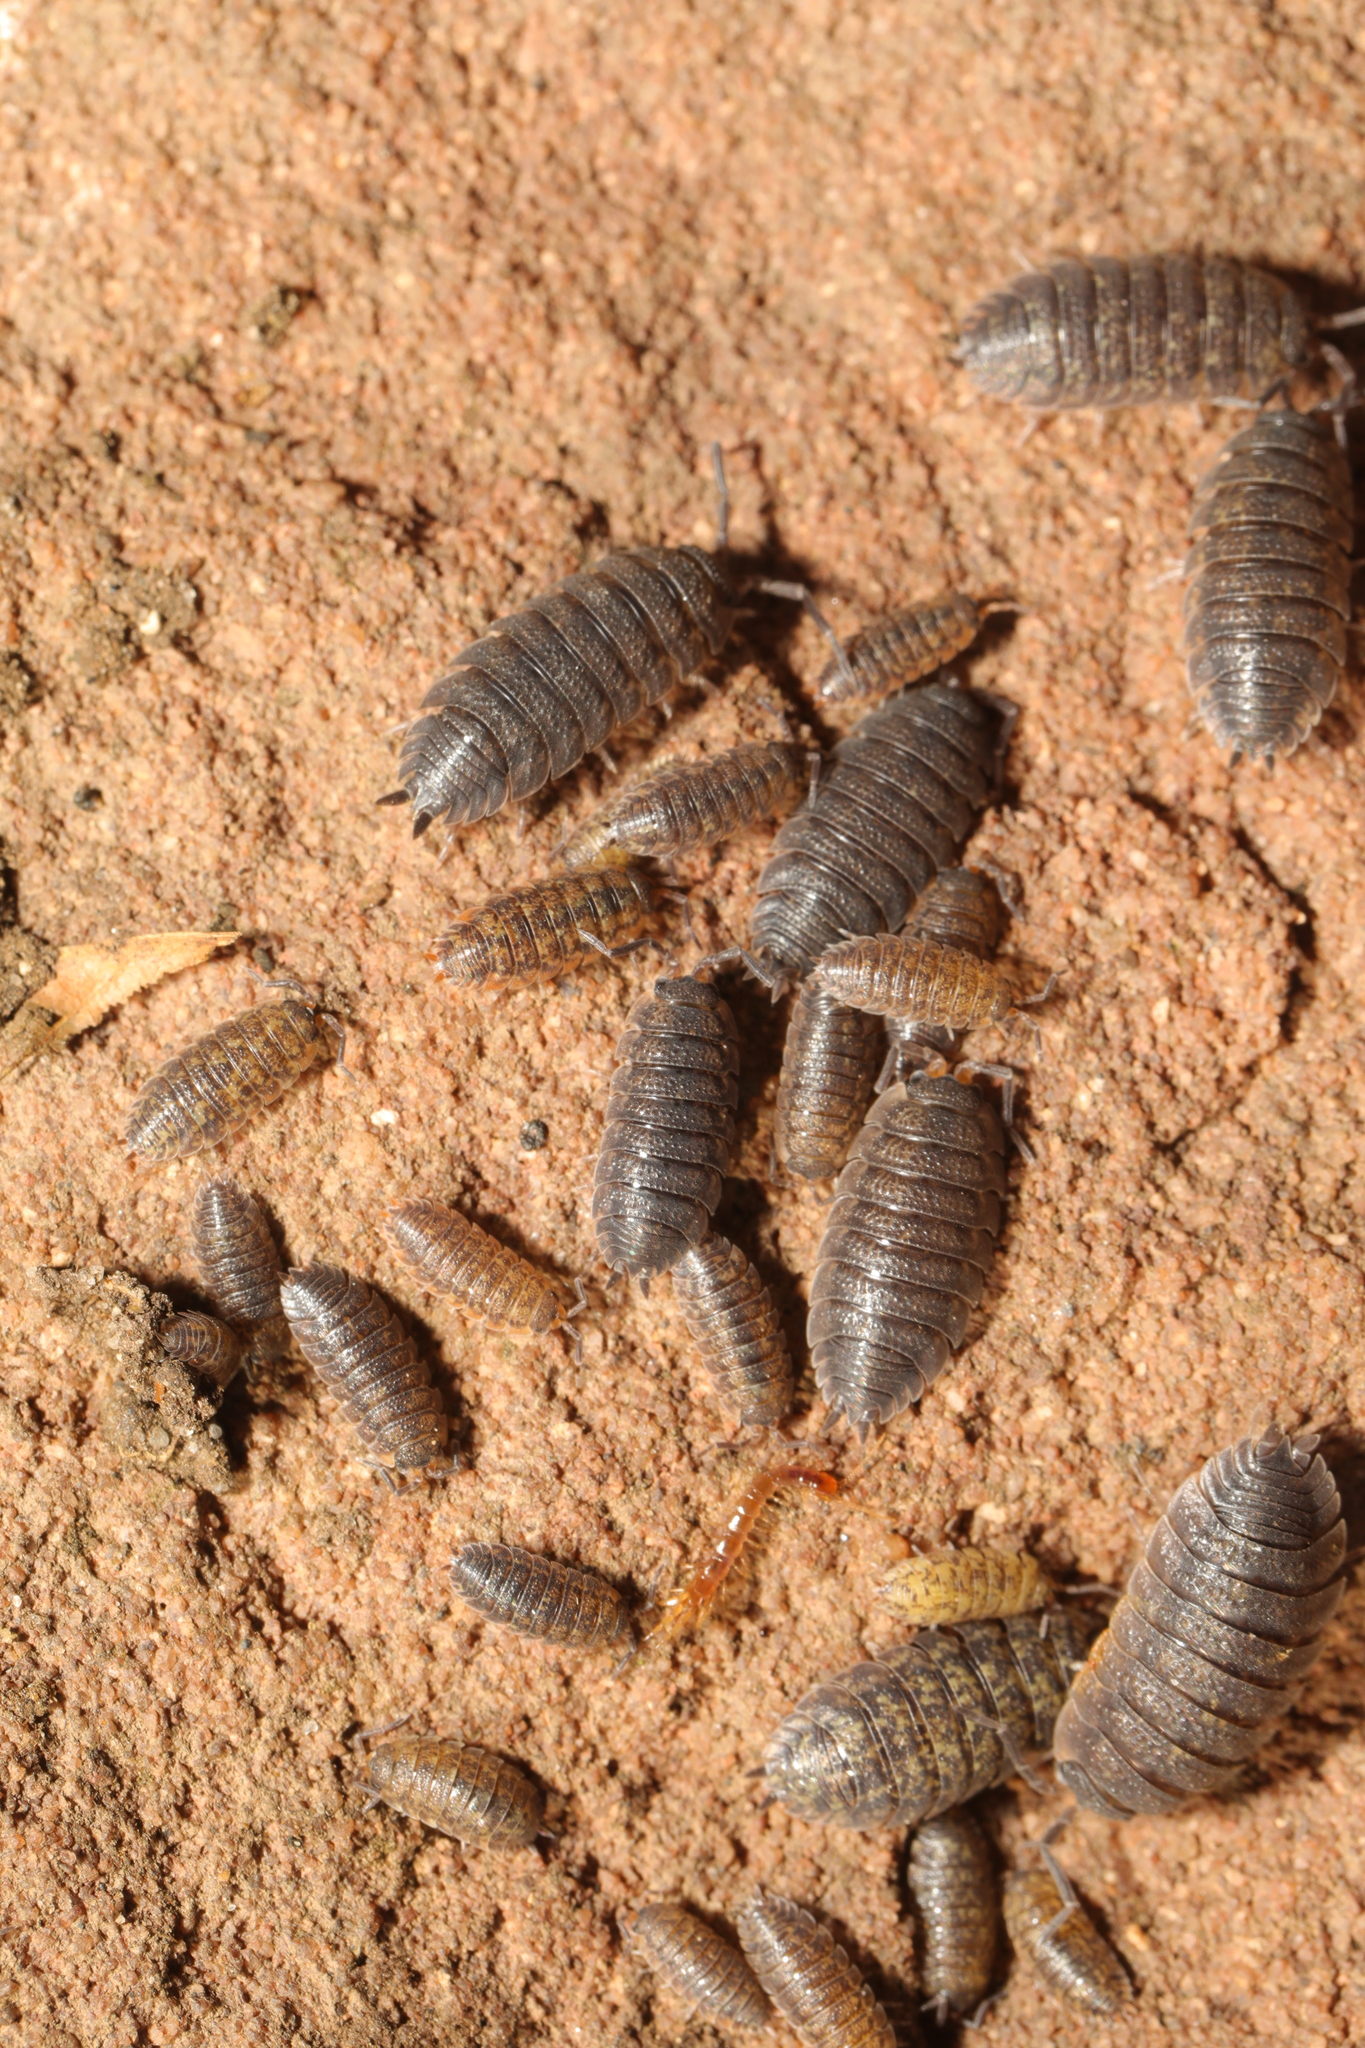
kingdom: Animalia
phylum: Arthropoda
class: Malacostraca
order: Isopoda
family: Porcellionidae
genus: Porcellio
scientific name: Porcellio scaber
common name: Common rough woodlouse
